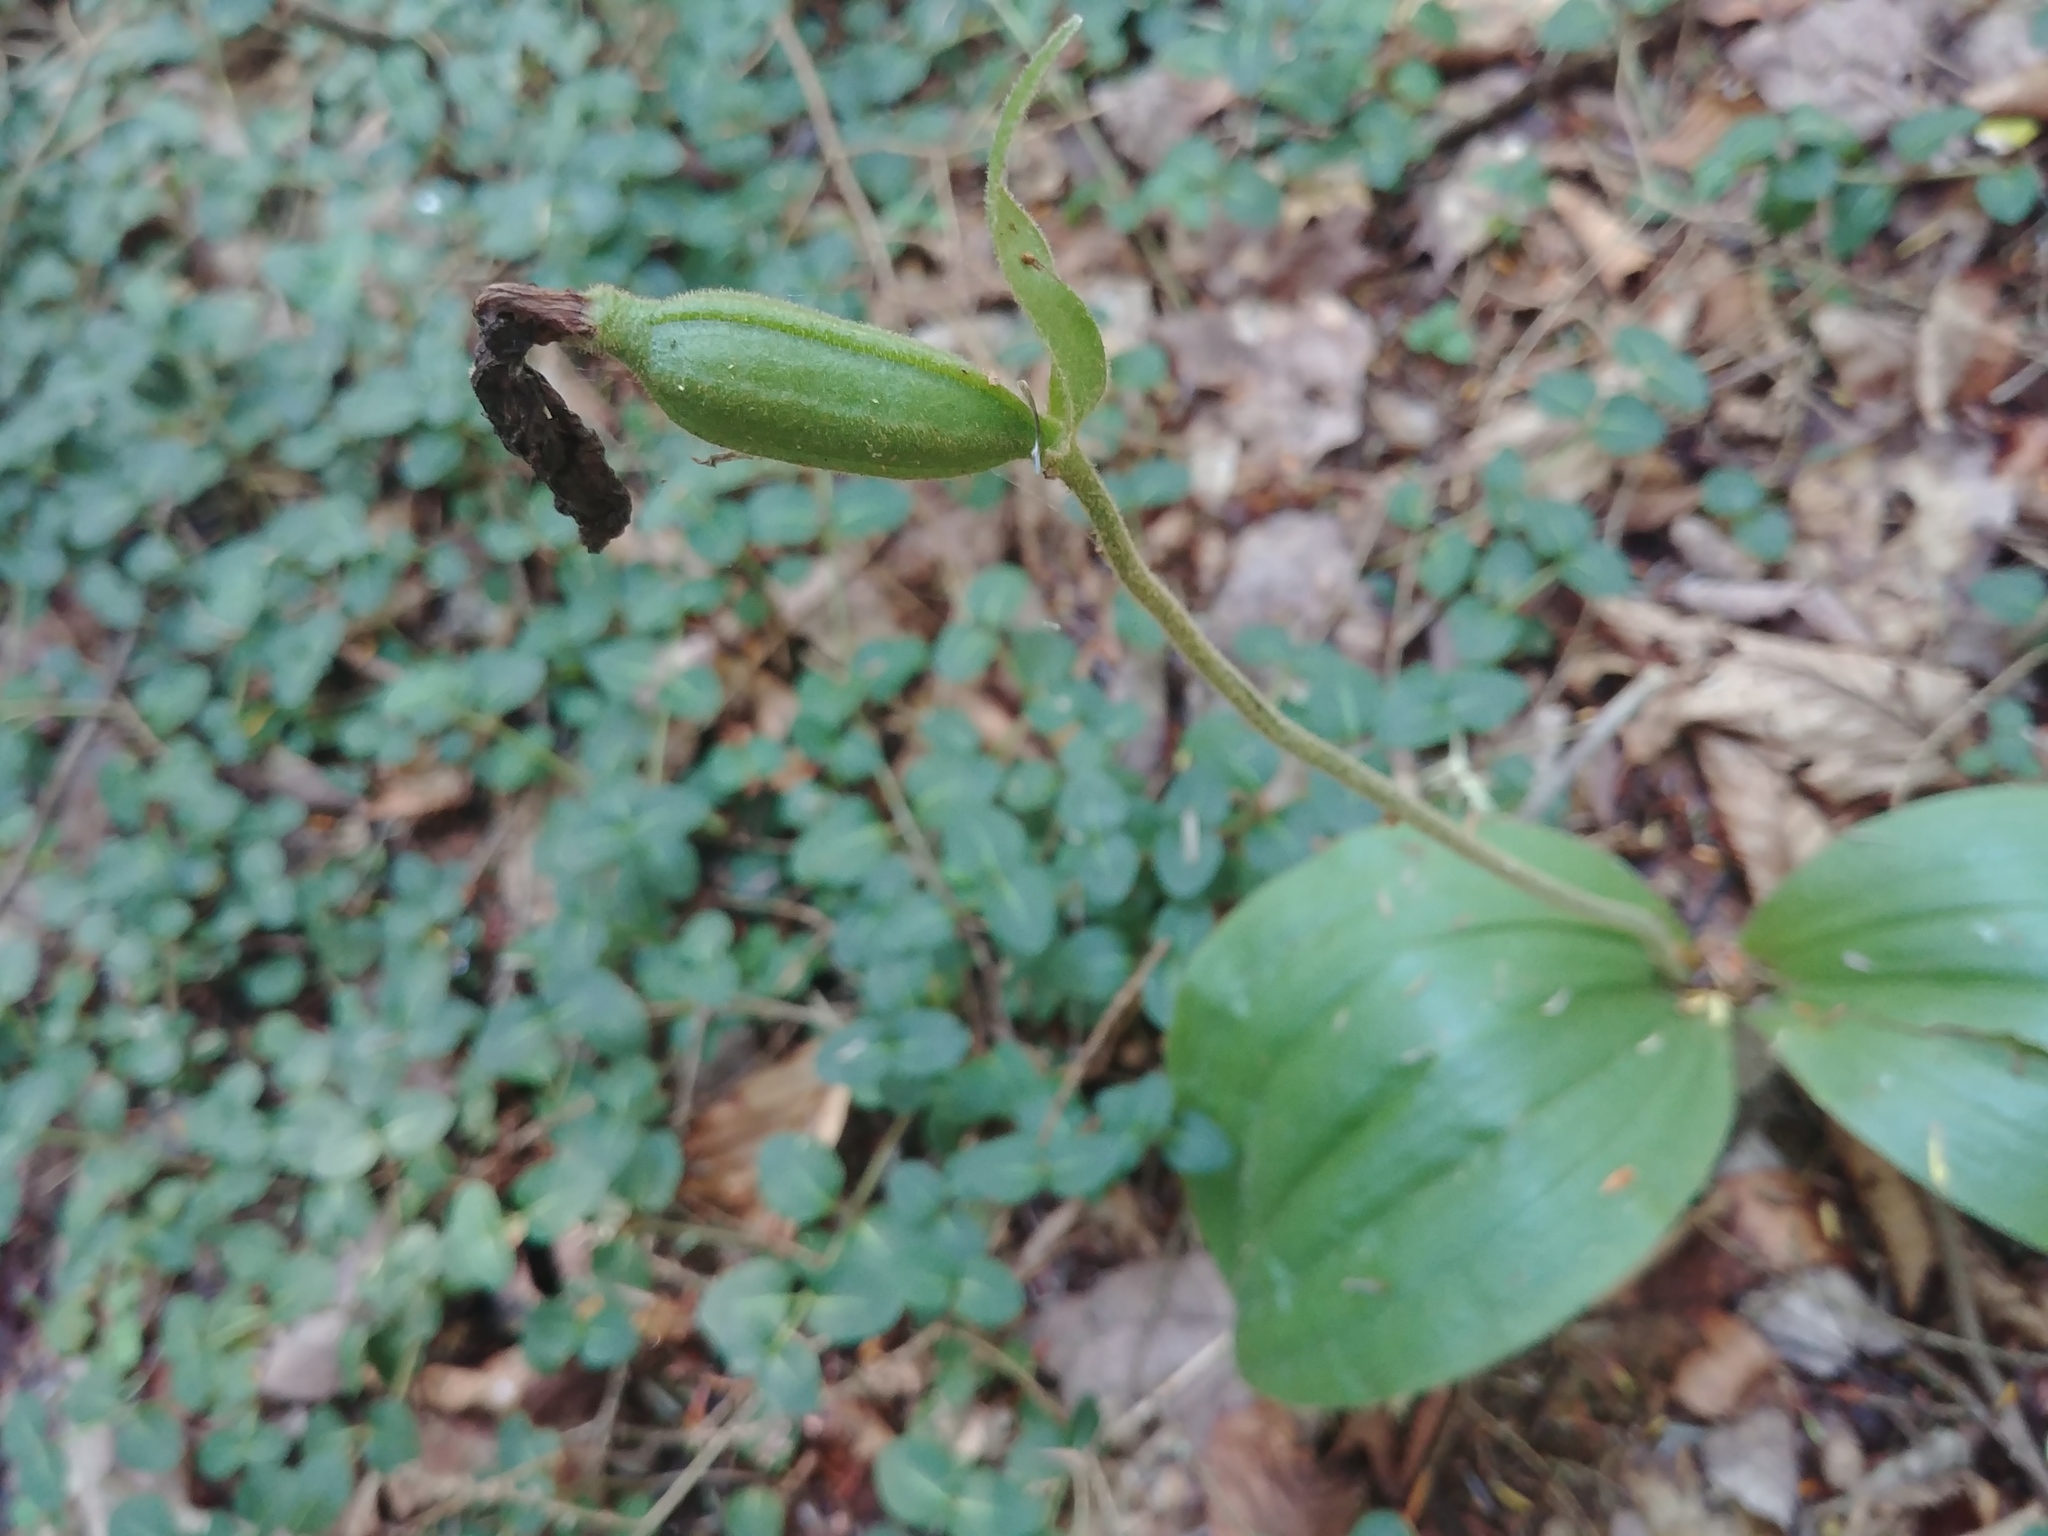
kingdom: Plantae
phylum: Tracheophyta
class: Liliopsida
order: Asparagales
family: Orchidaceae
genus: Cypripedium
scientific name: Cypripedium acaule
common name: Pink lady's-slipper
